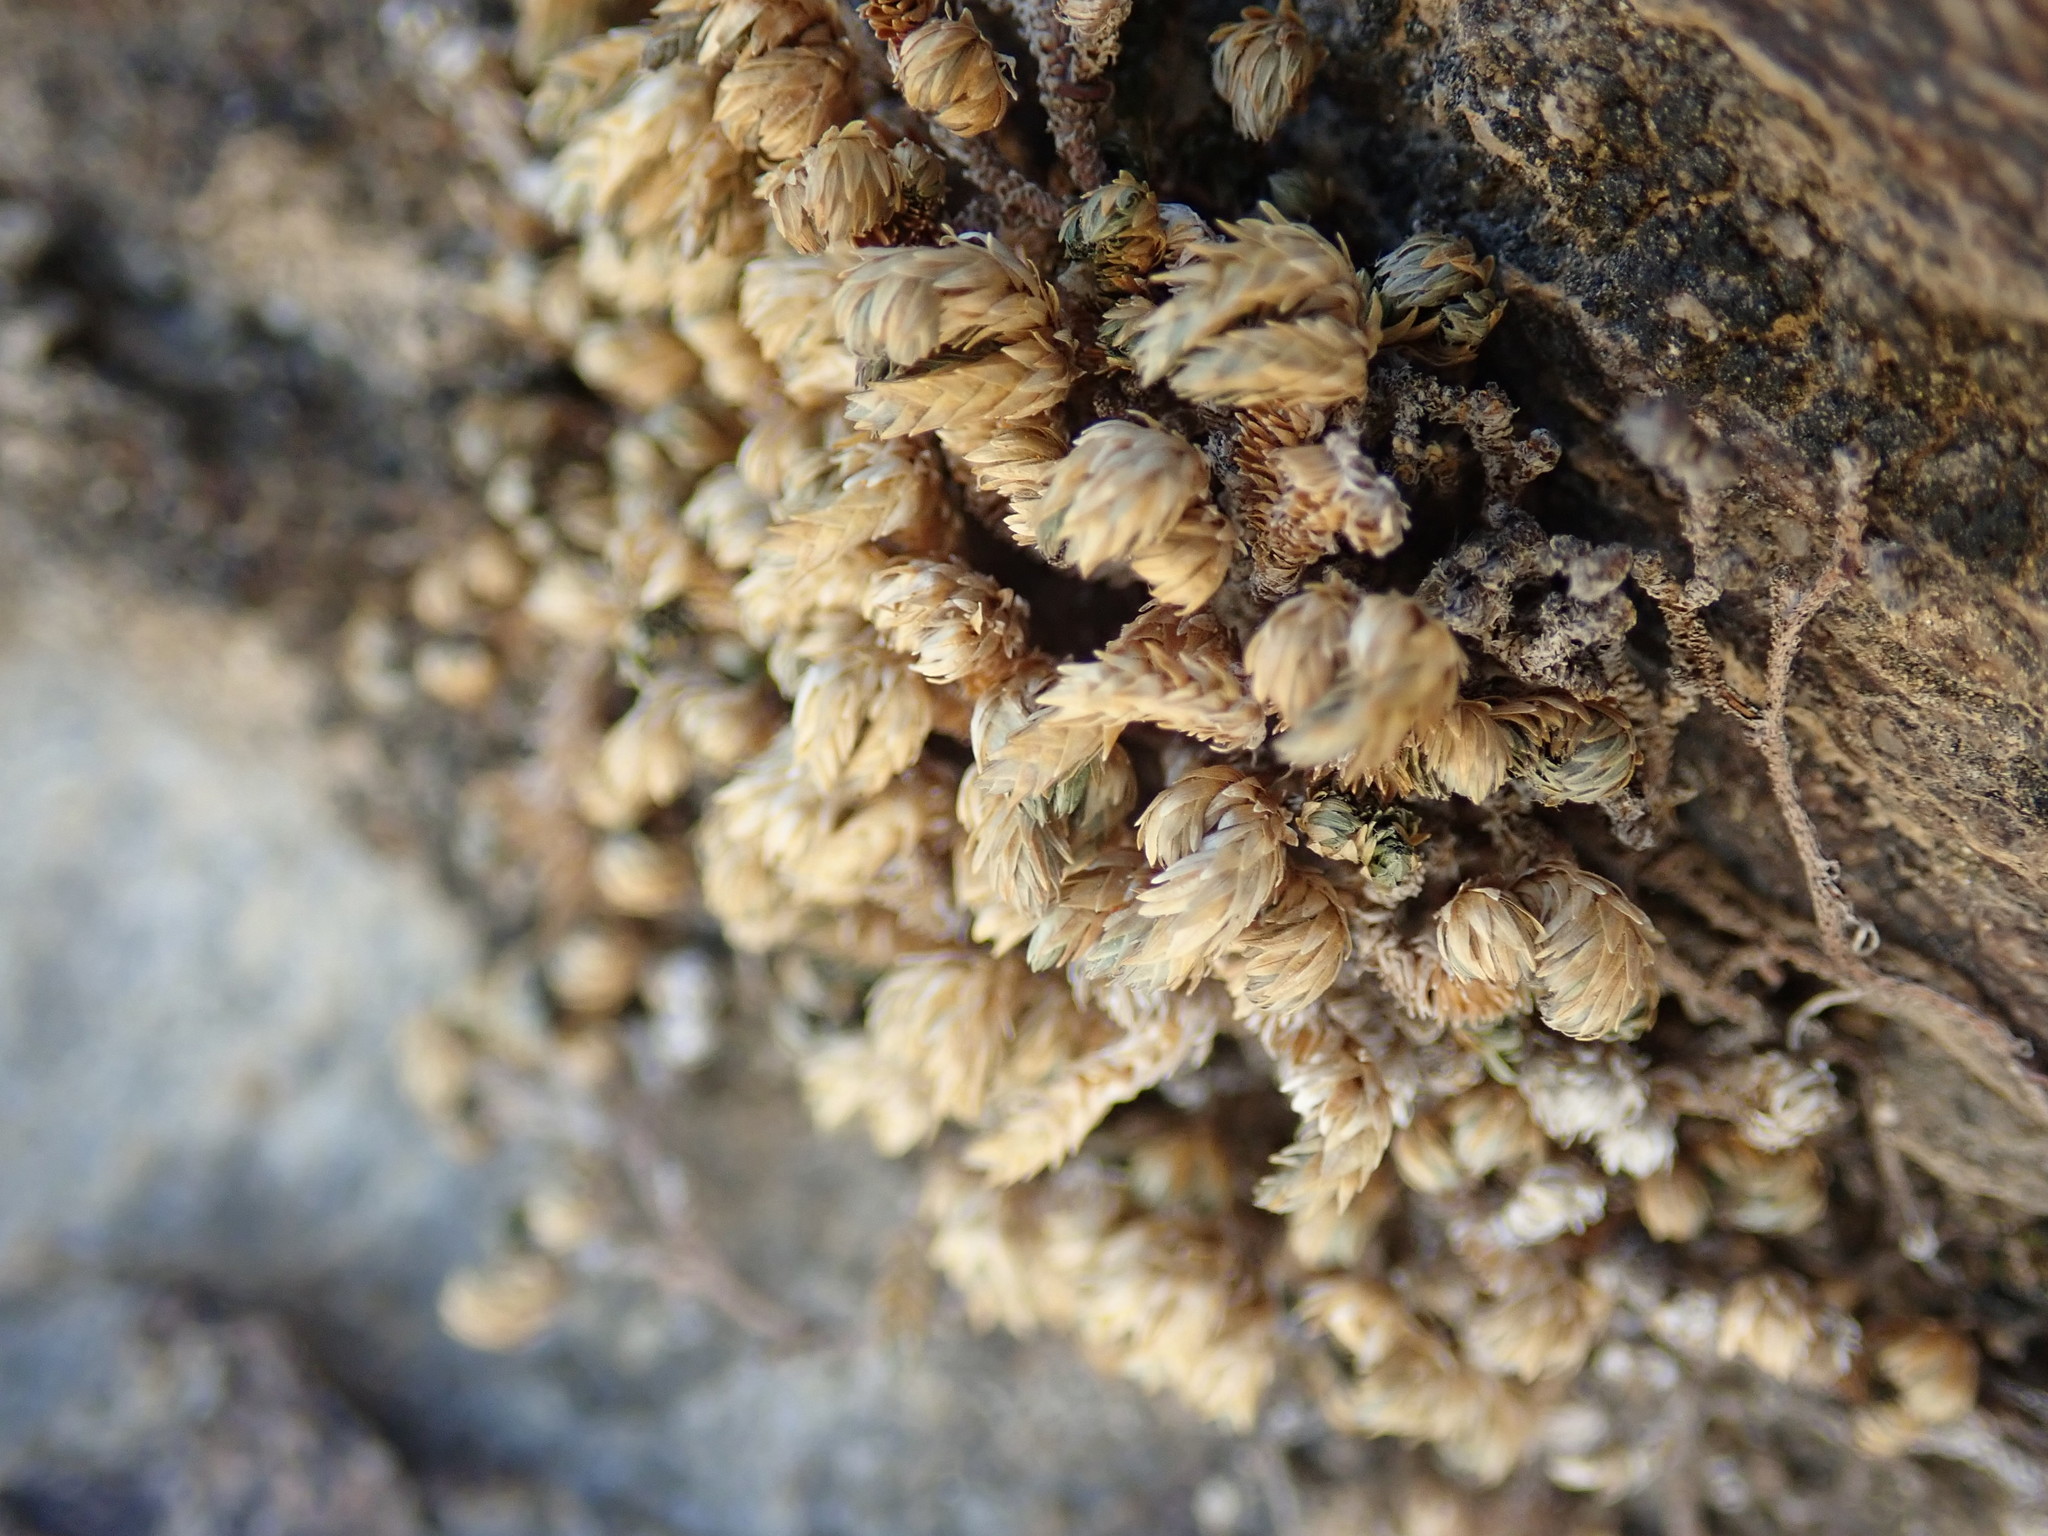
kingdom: Plantae
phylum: Tracheophyta
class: Lycopodiopsida
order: Selaginellales
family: Selaginellaceae
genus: Selaginella
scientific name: Selaginella eremophila
